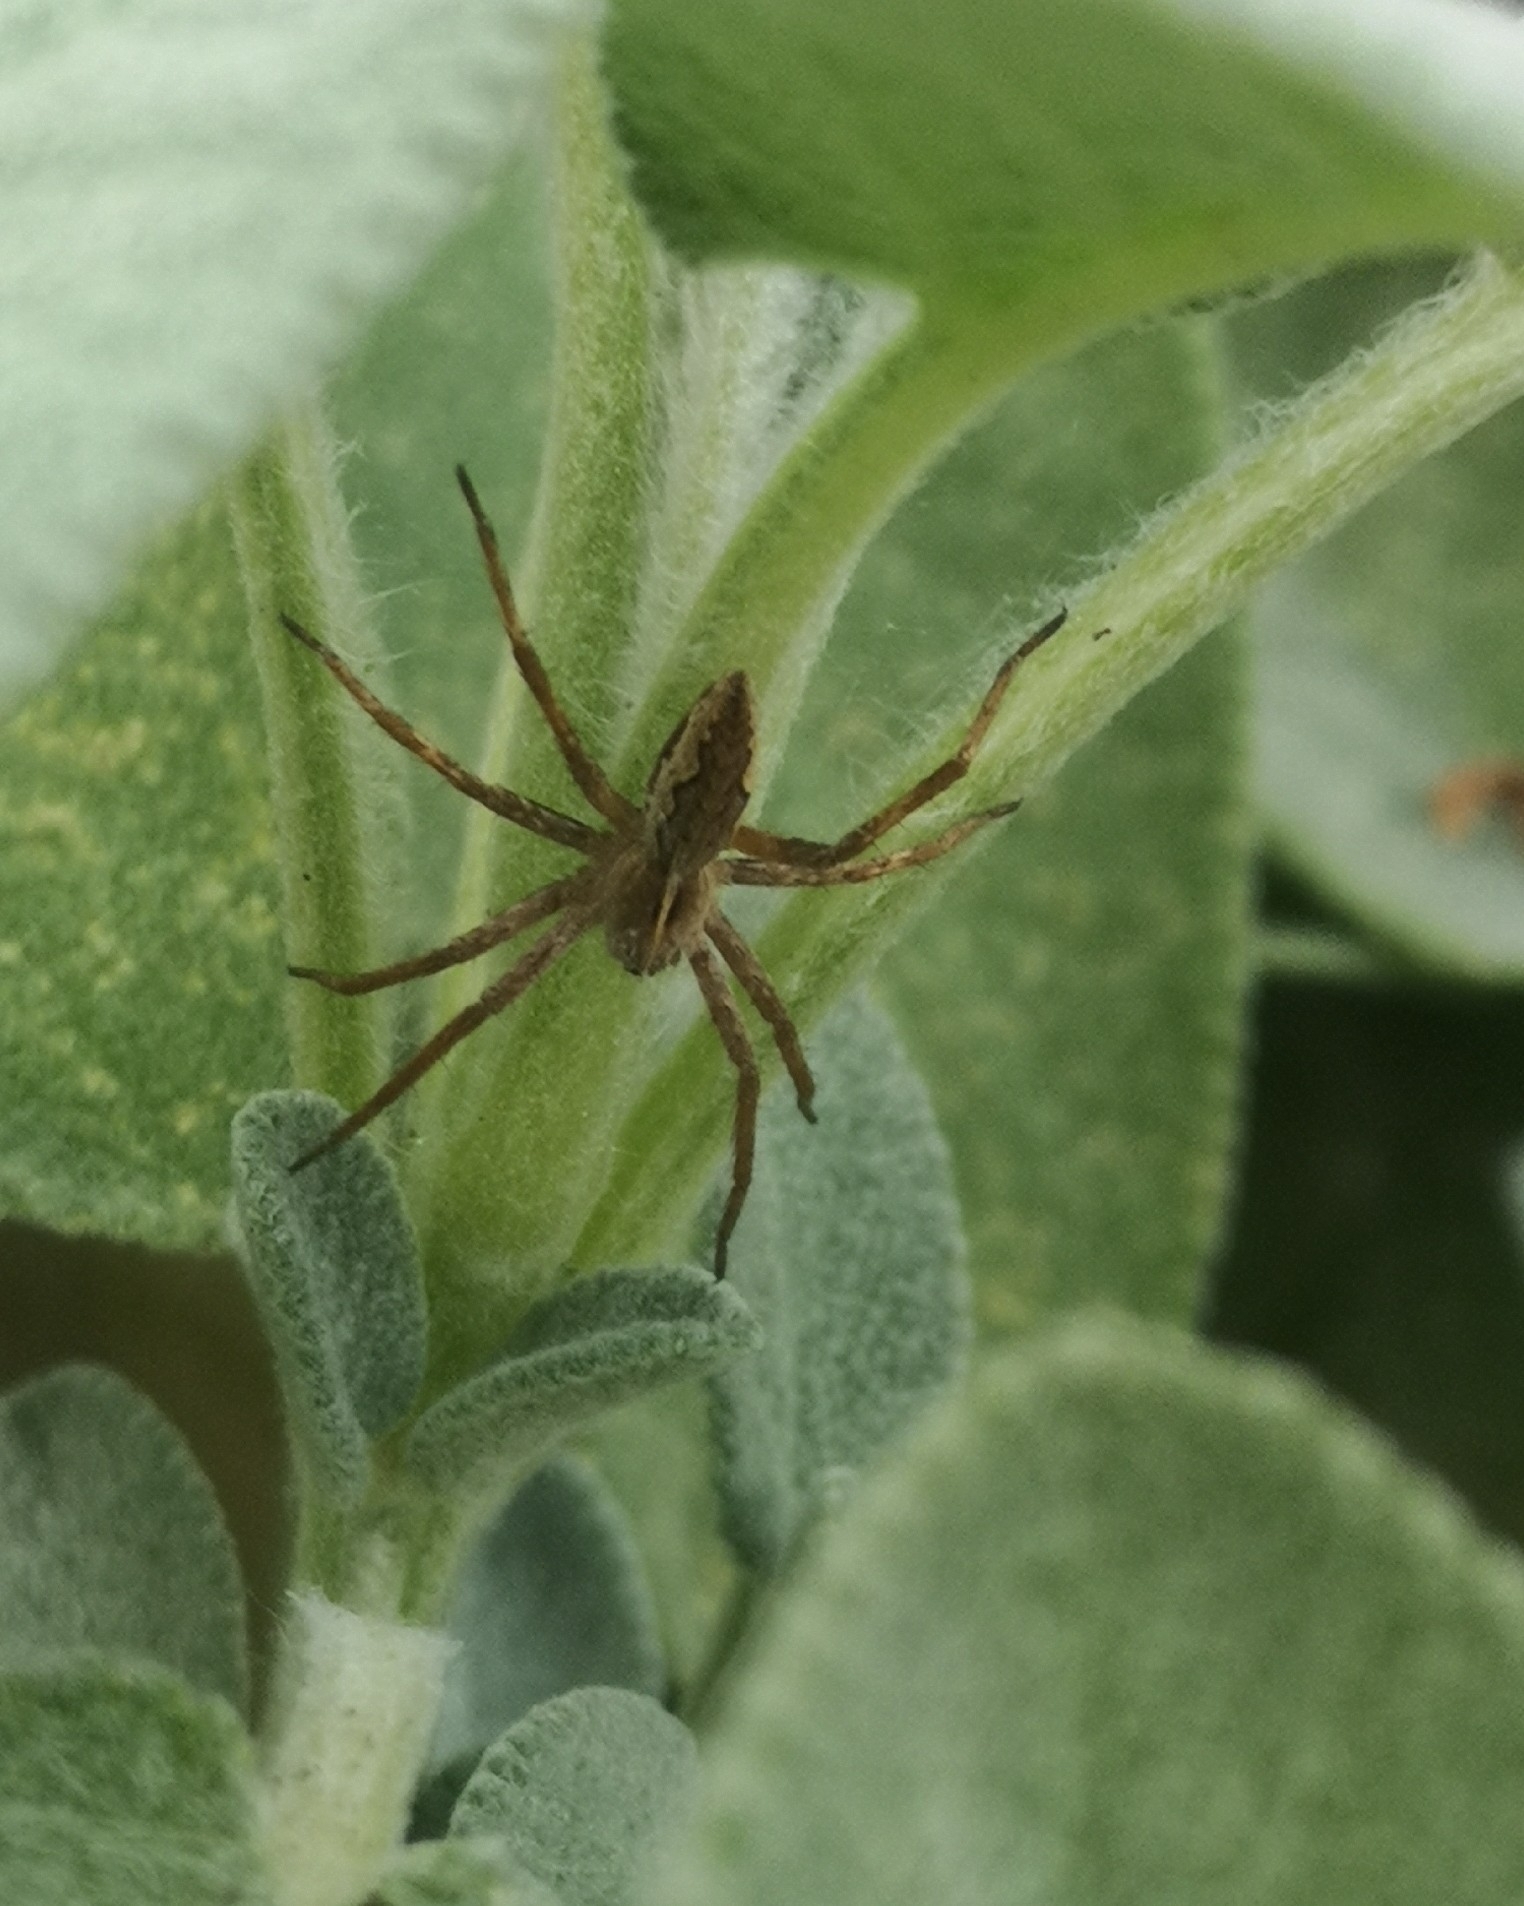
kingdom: Animalia
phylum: Arthropoda
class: Arachnida
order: Araneae
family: Pisauridae
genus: Pisaura
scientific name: Pisaura mirabilis
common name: Tent spider
